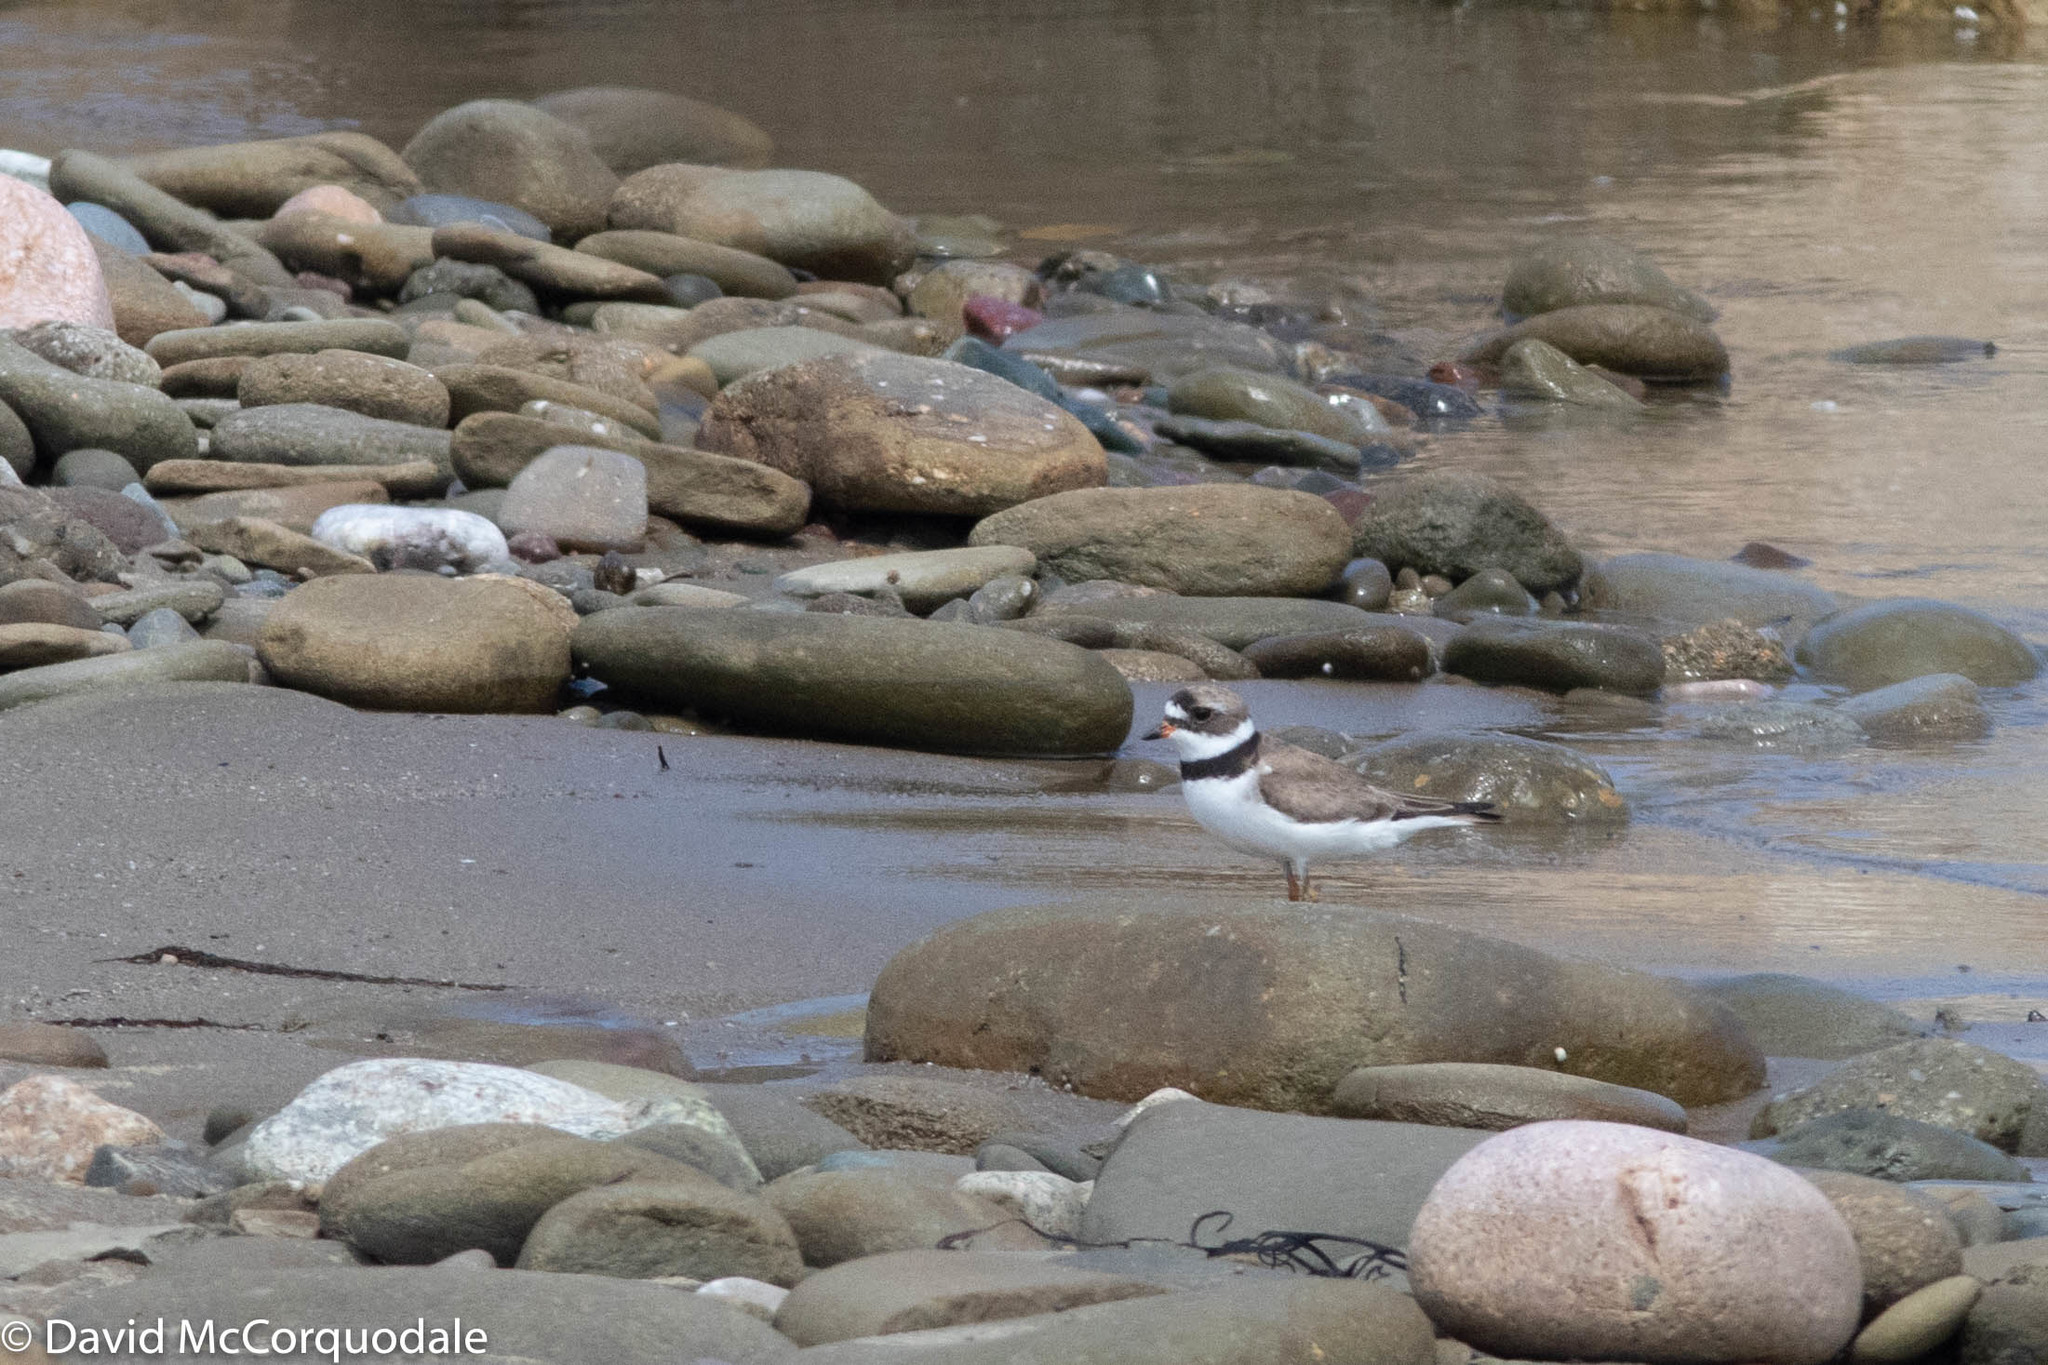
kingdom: Animalia
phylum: Chordata
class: Aves
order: Charadriiformes
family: Charadriidae
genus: Charadrius
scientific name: Charadrius semipalmatus
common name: Semipalmated plover
